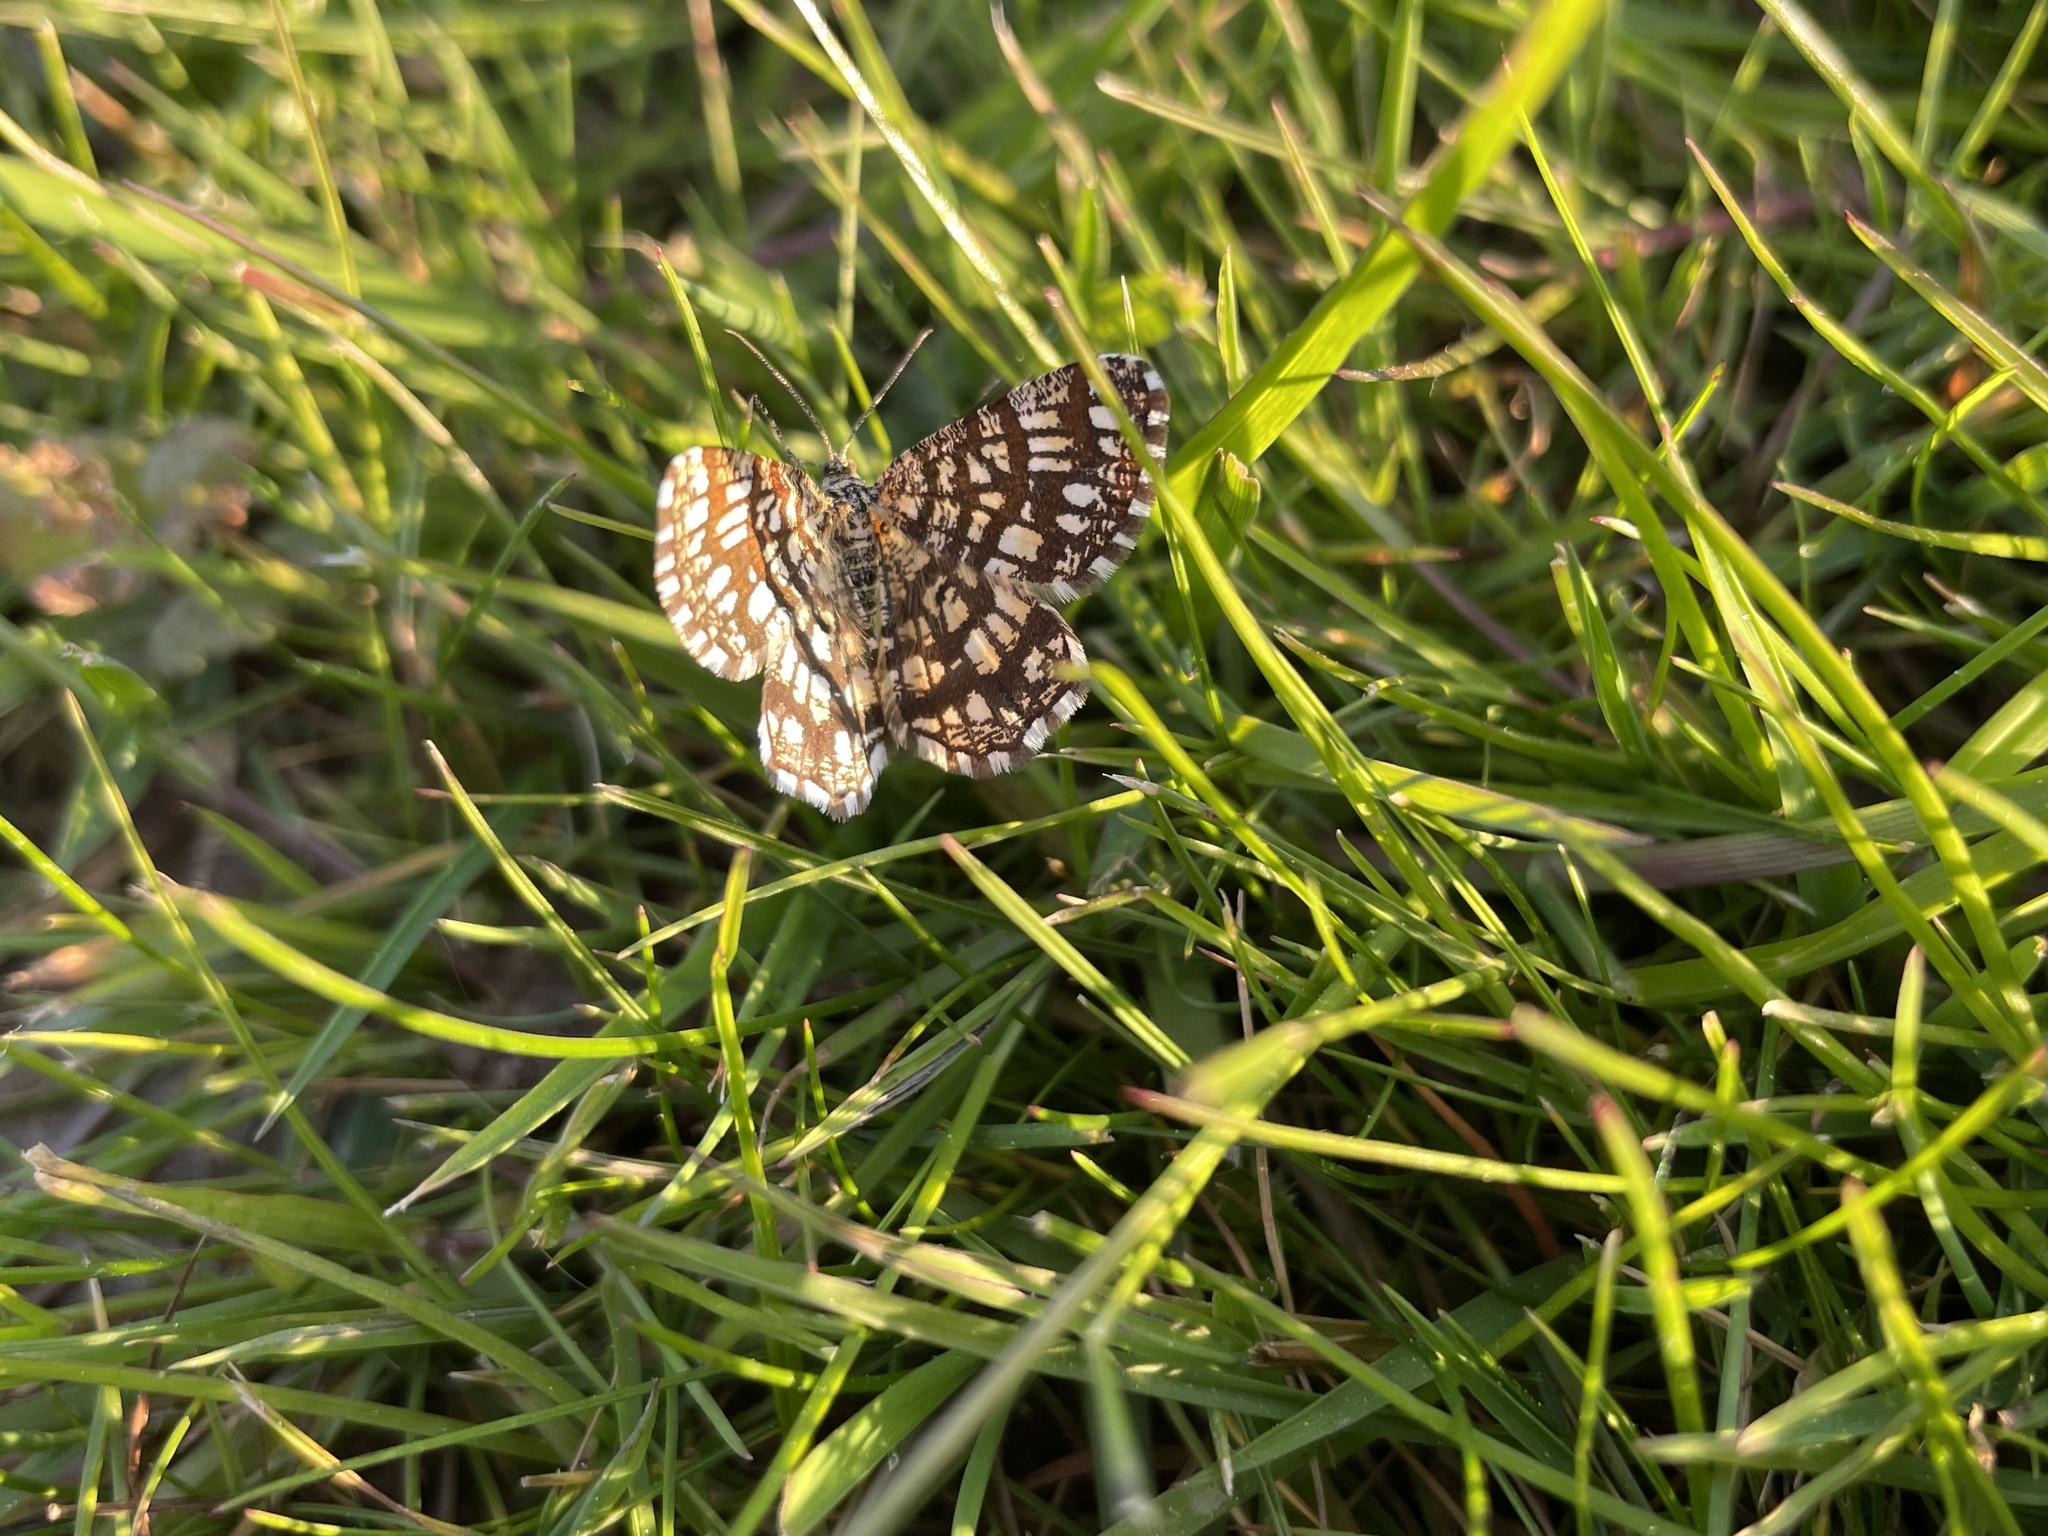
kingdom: Animalia
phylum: Arthropoda
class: Insecta
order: Lepidoptera
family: Geometridae
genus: Chiasmia
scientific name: Chiasmia clathrata
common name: Latticed heath
